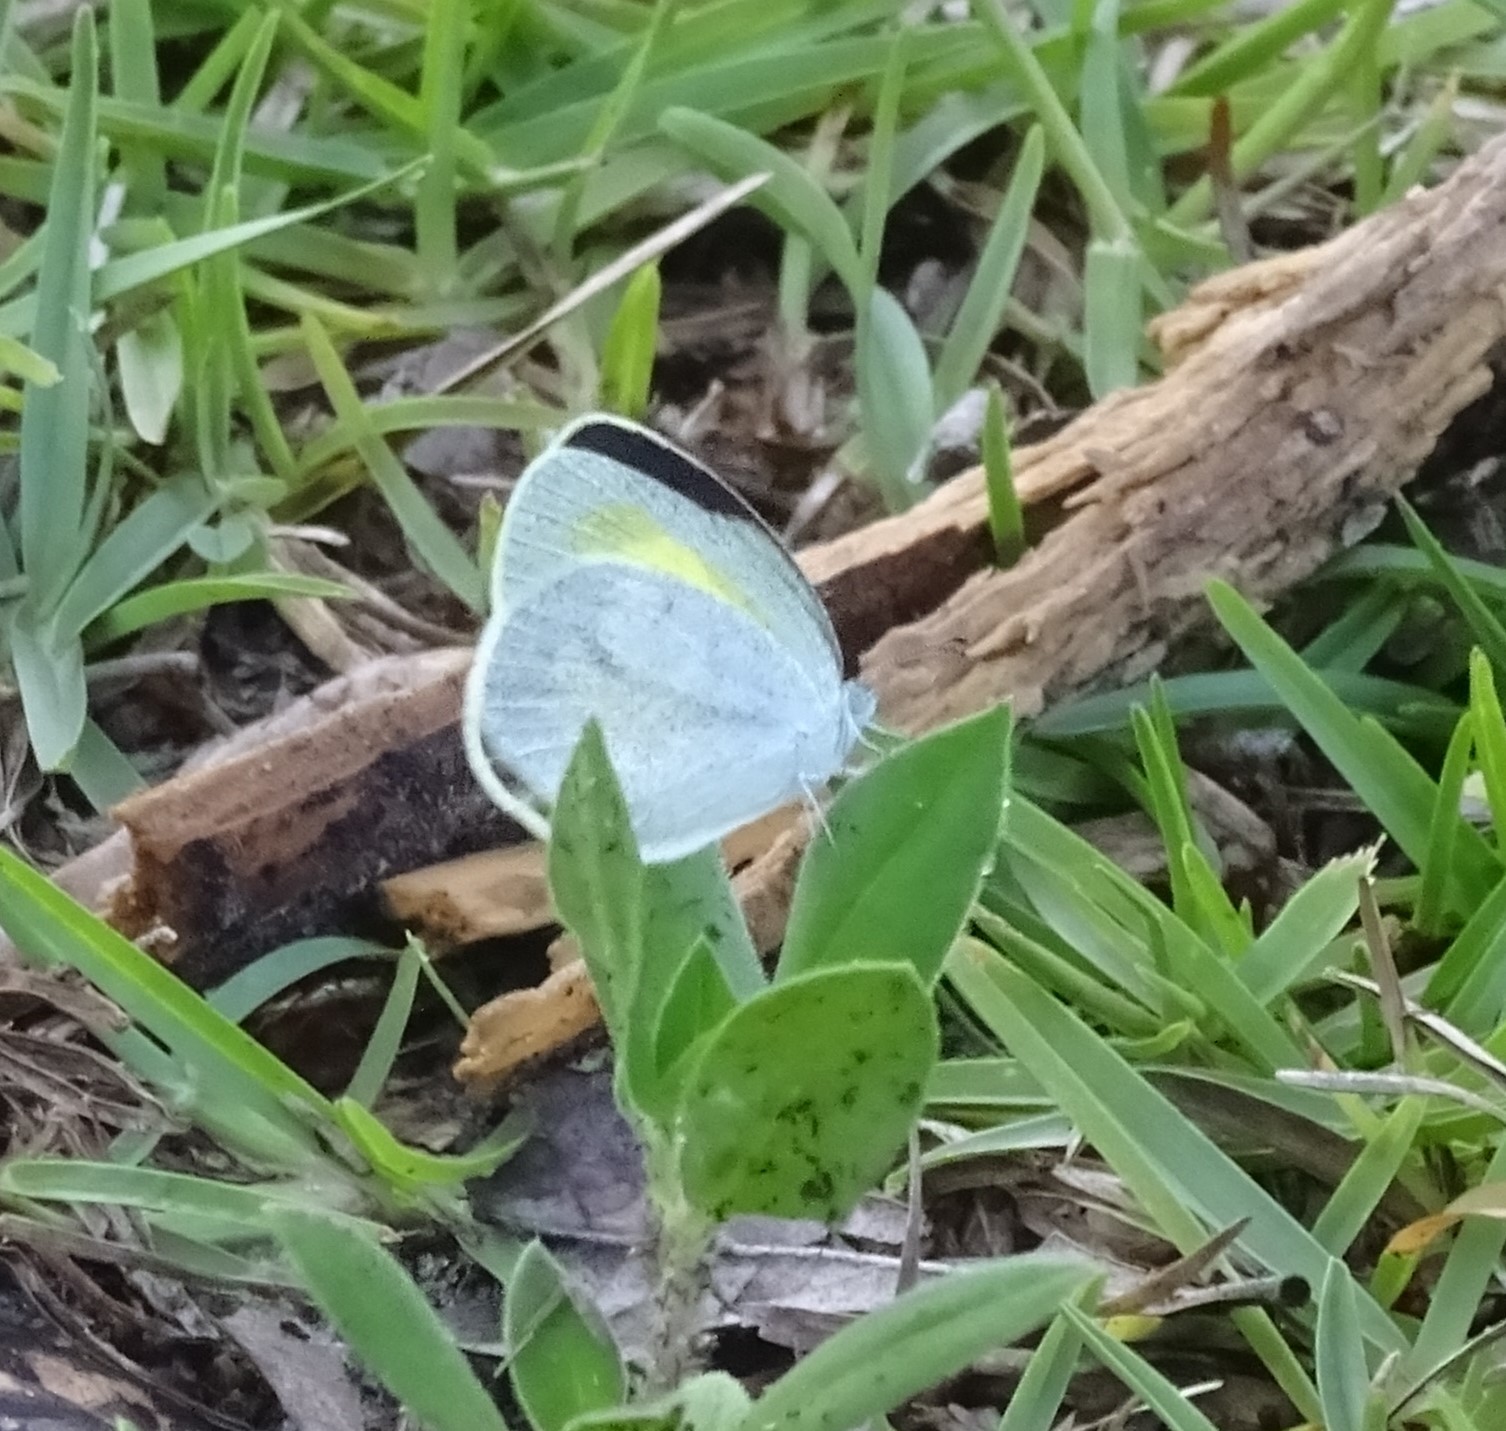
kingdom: Animalia
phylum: Arthropoda
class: Insecta
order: Lepidoptera
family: Pieridae
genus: Eurema
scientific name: Eurema daira
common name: Barred sulphur
